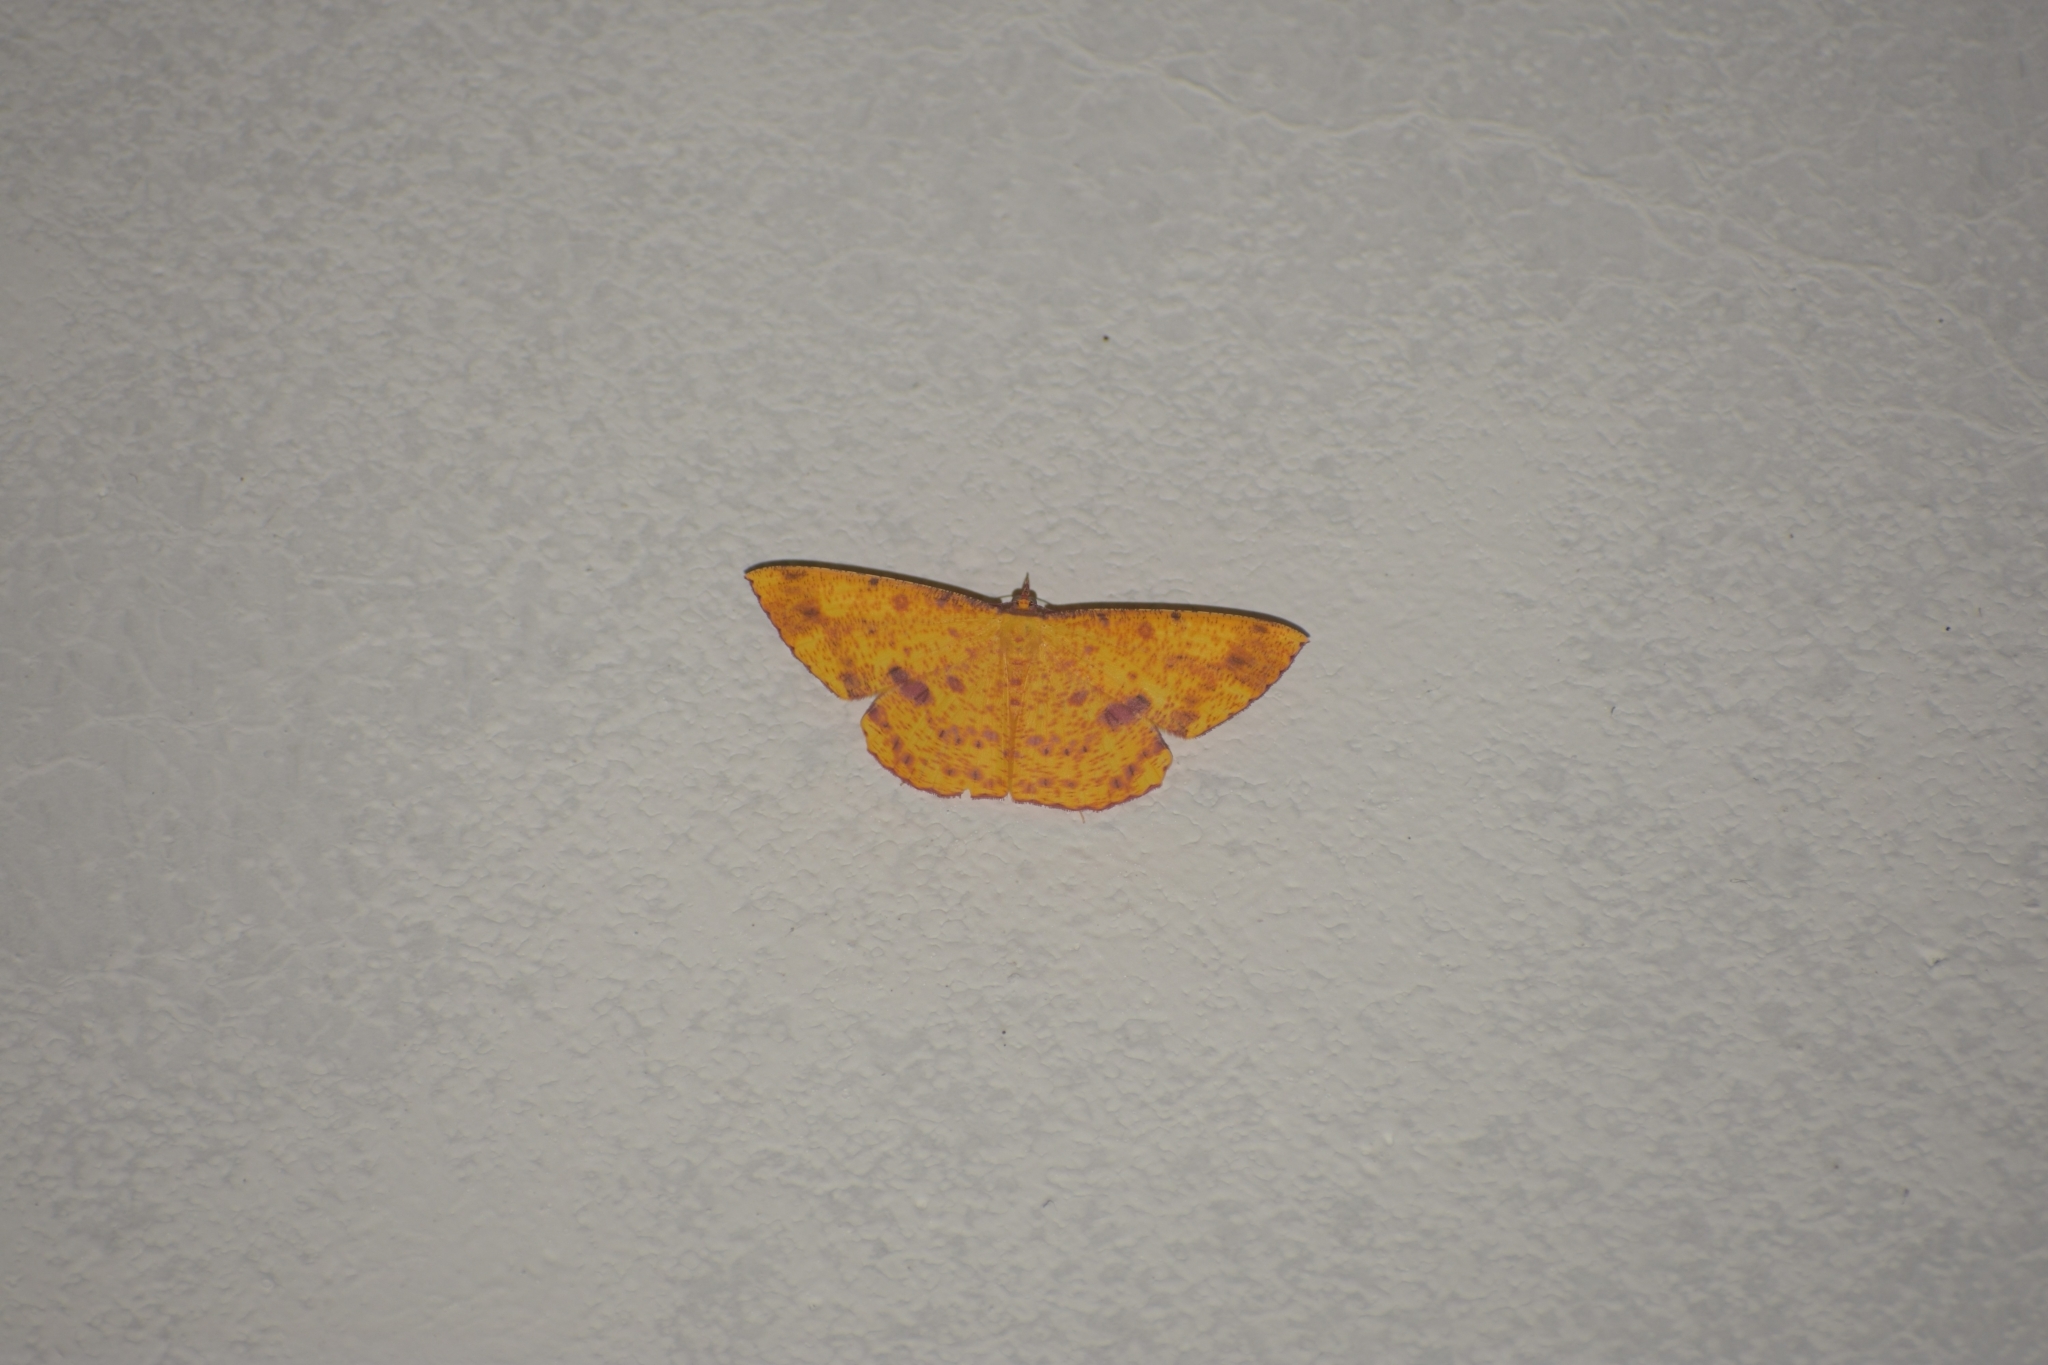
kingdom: Animalia
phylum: Arthropoda
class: Insecta
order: Lepidoptera
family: Geometridae
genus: Eumelea
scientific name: Eumelea ludovicata
